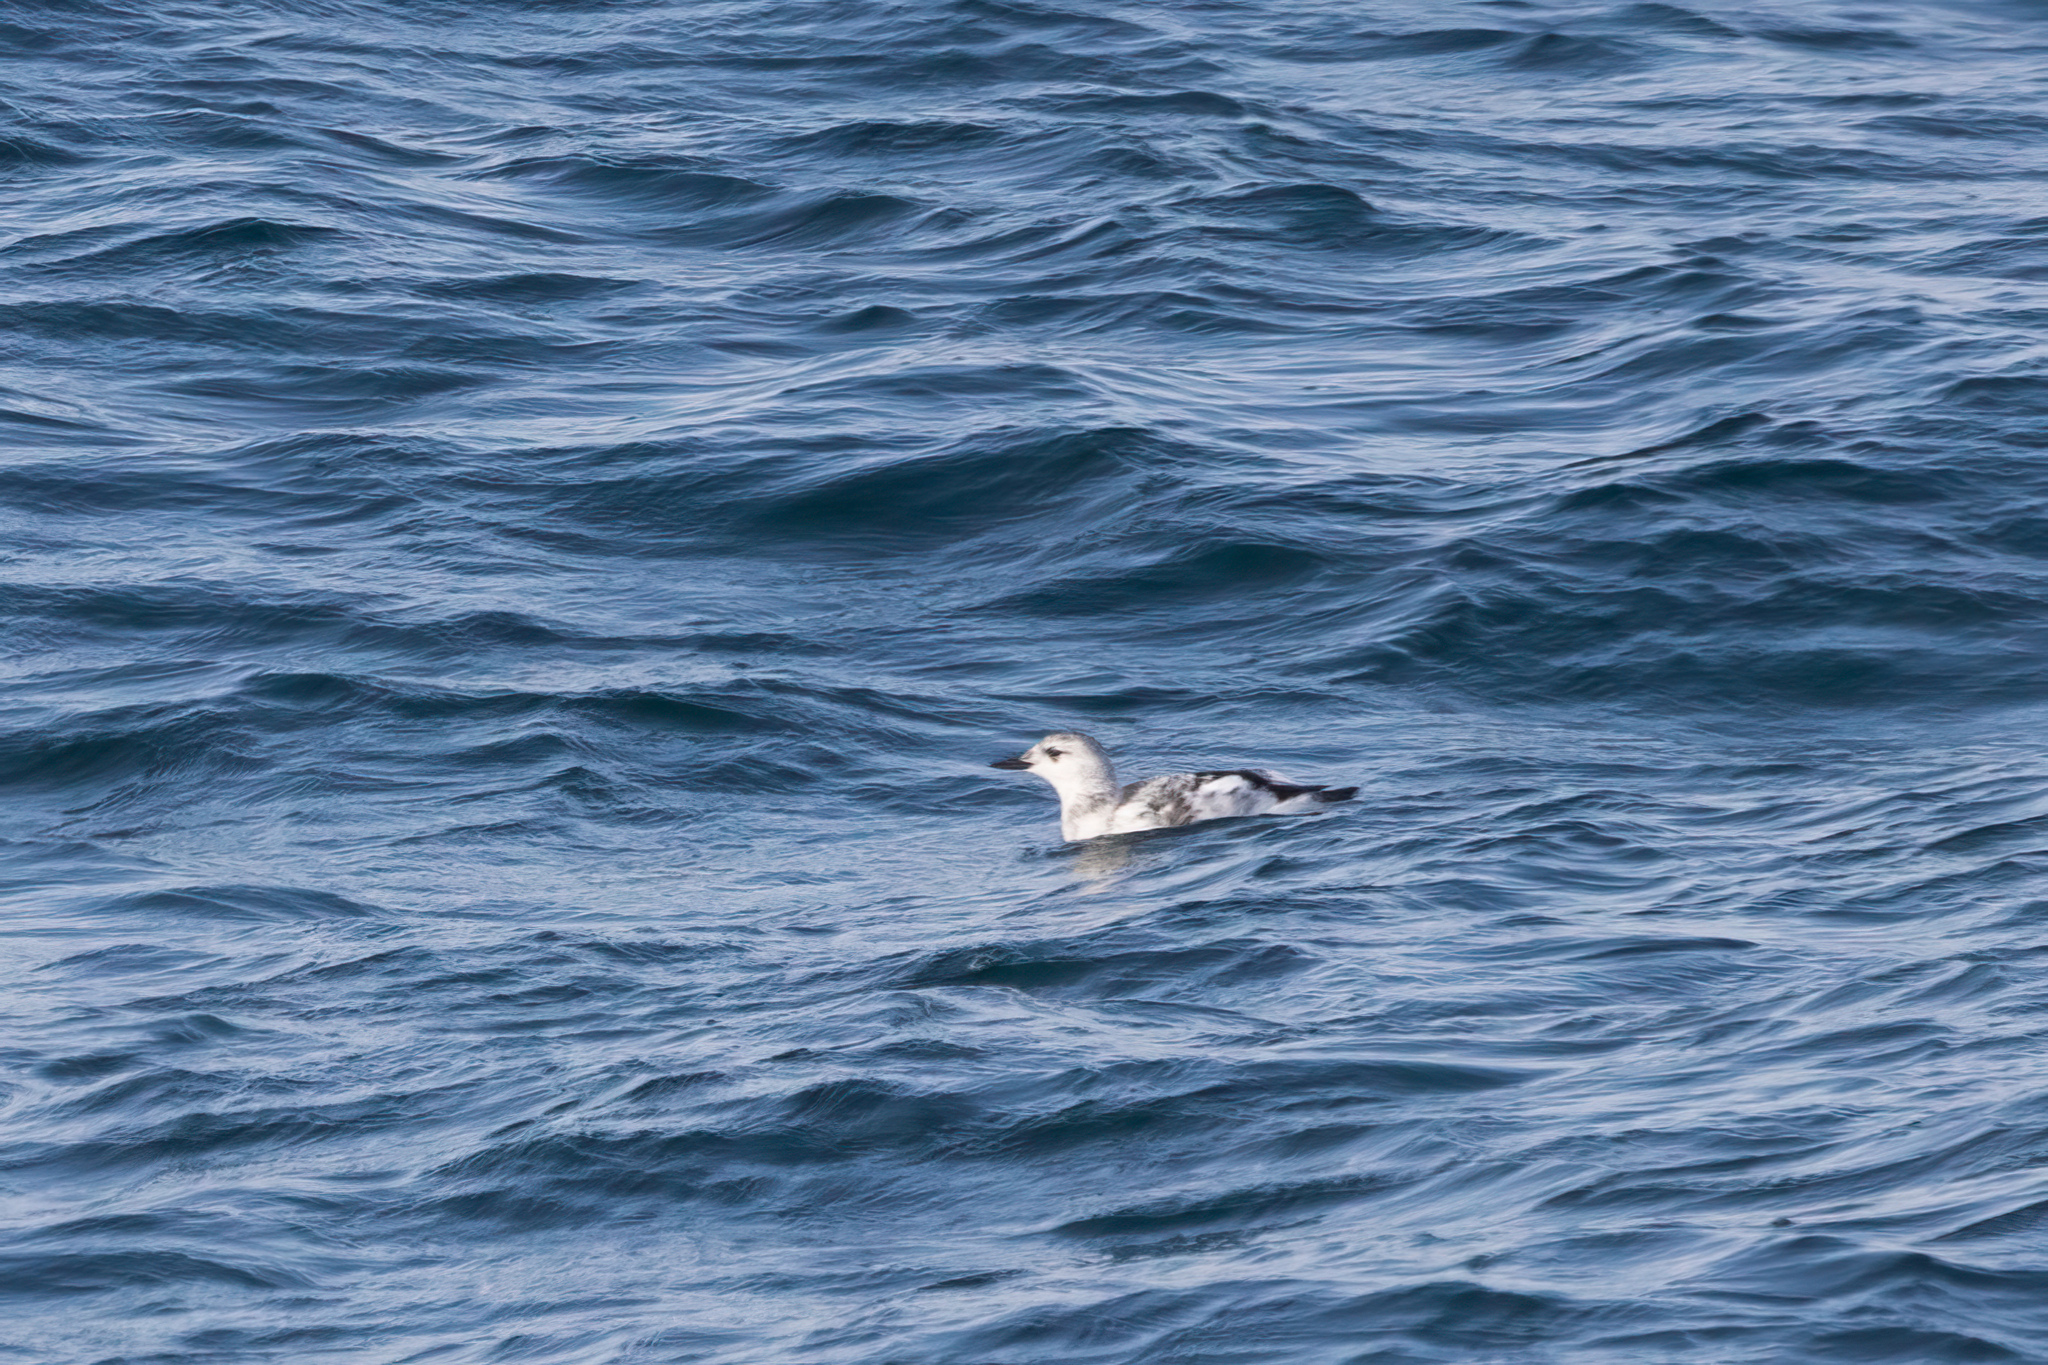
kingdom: Animalia
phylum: Chordata
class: Aves
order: Charadriiformes
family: Alcidae
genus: Cepphus
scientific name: Cepphus grylle
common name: Black guillemot
